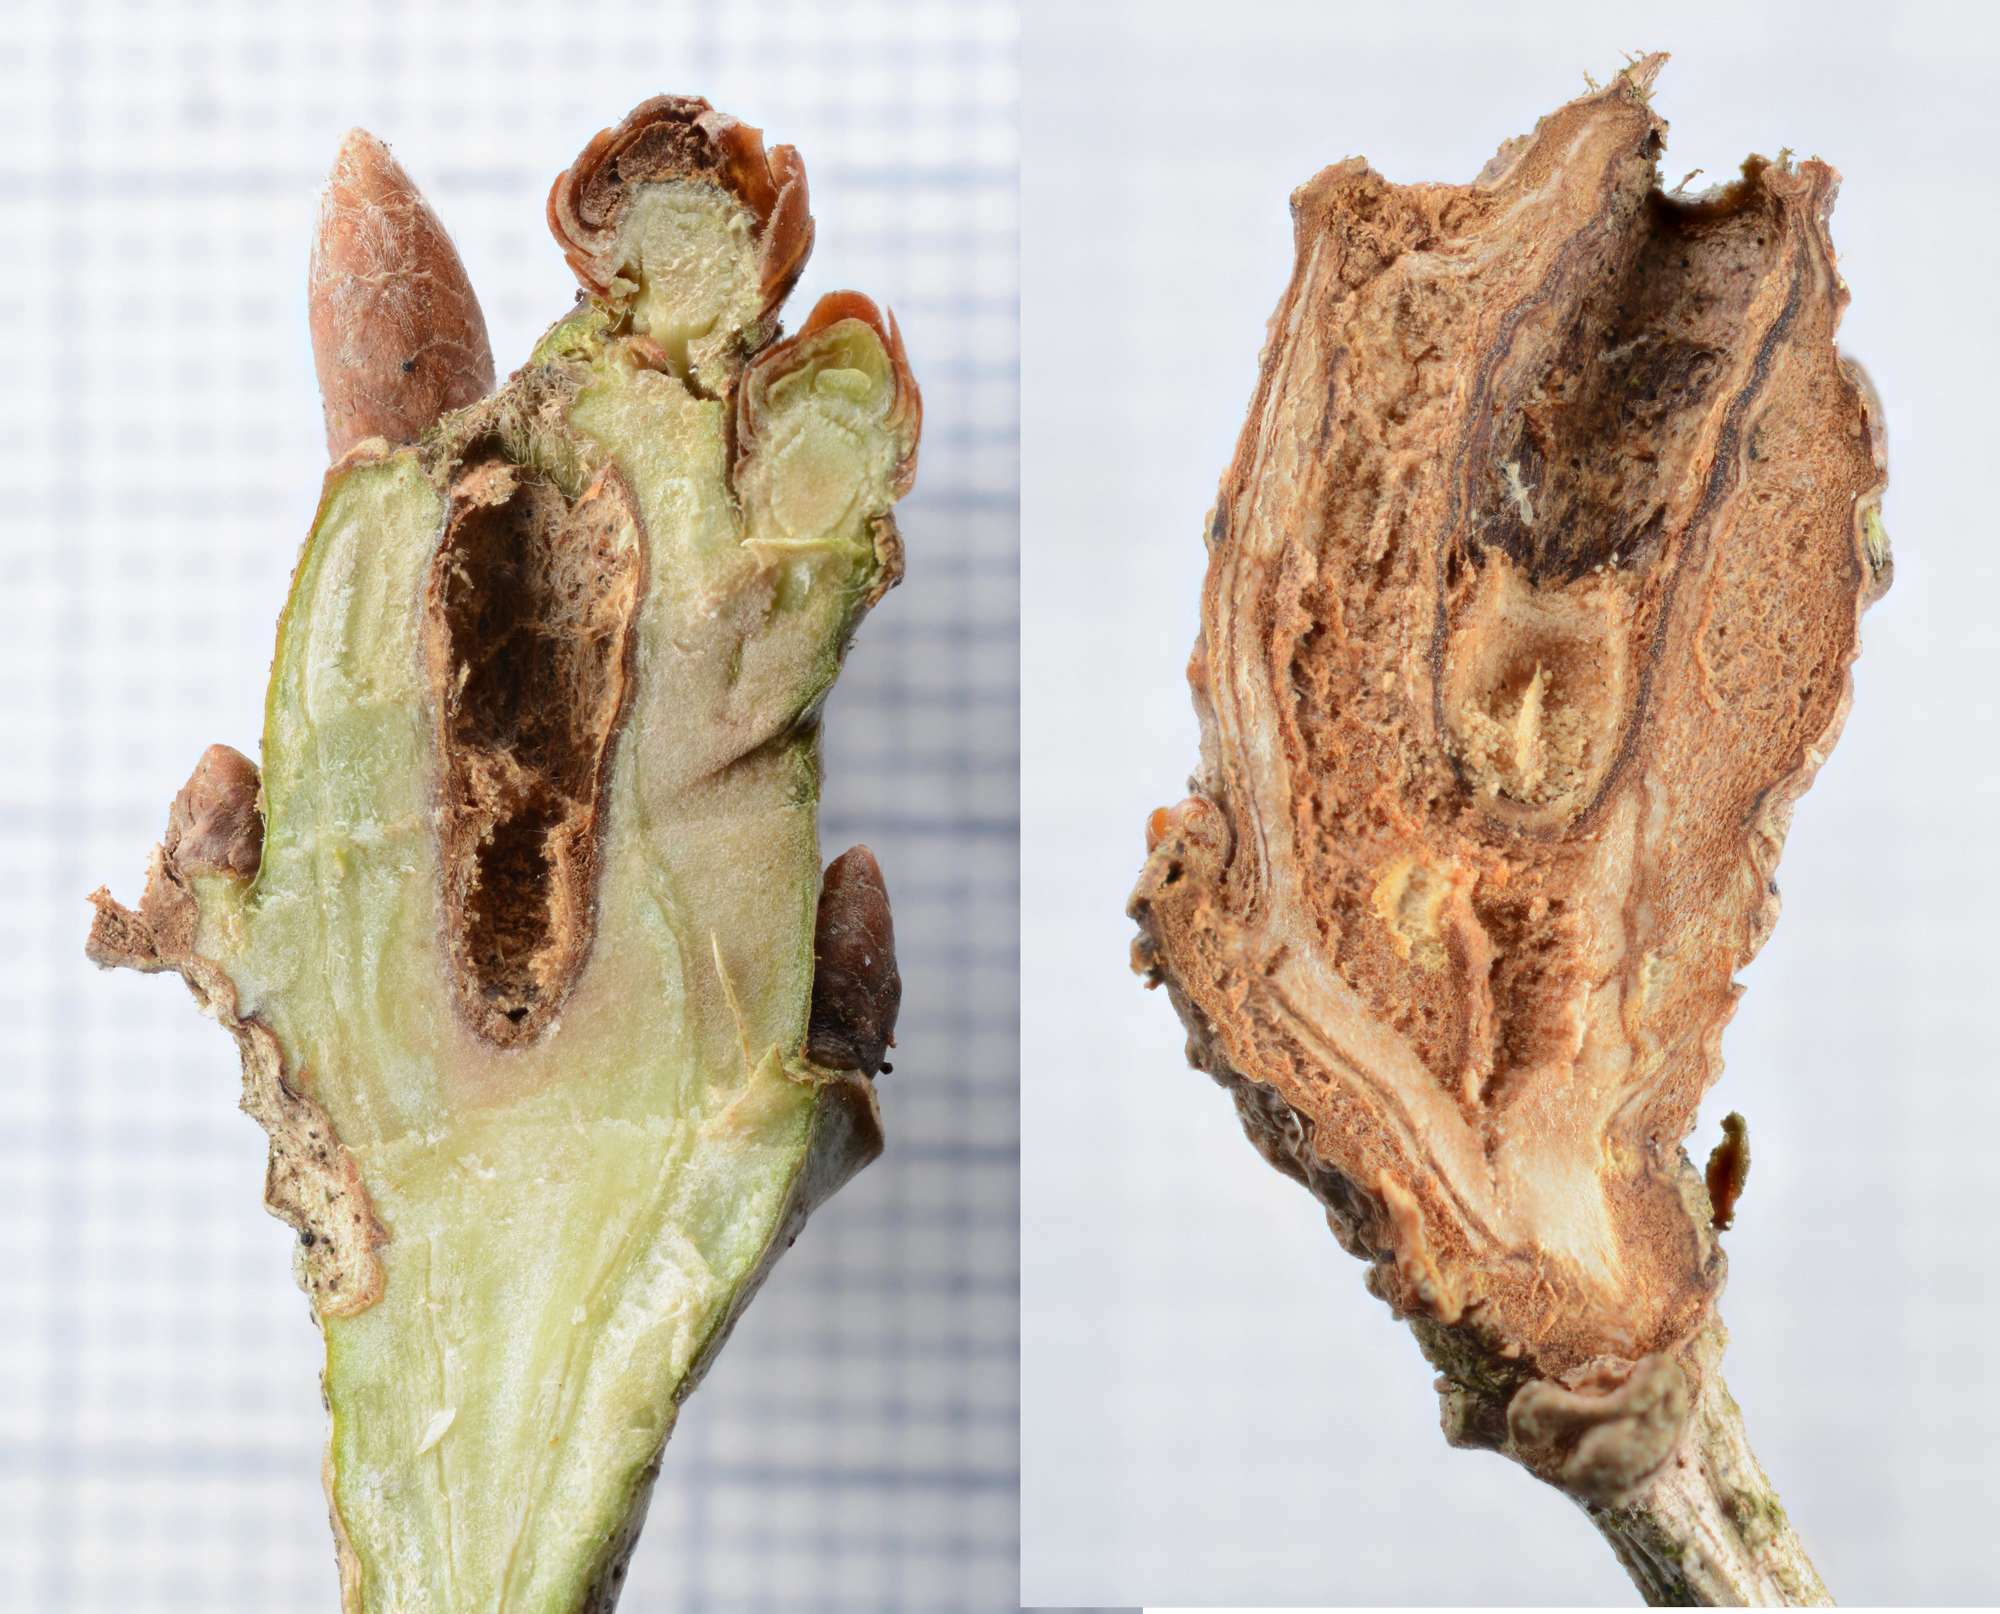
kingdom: Animalia
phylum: Arthropoda
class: Insecta
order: Hymenoptera
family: Cynipidae
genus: Andricus
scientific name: Andricus inflator
